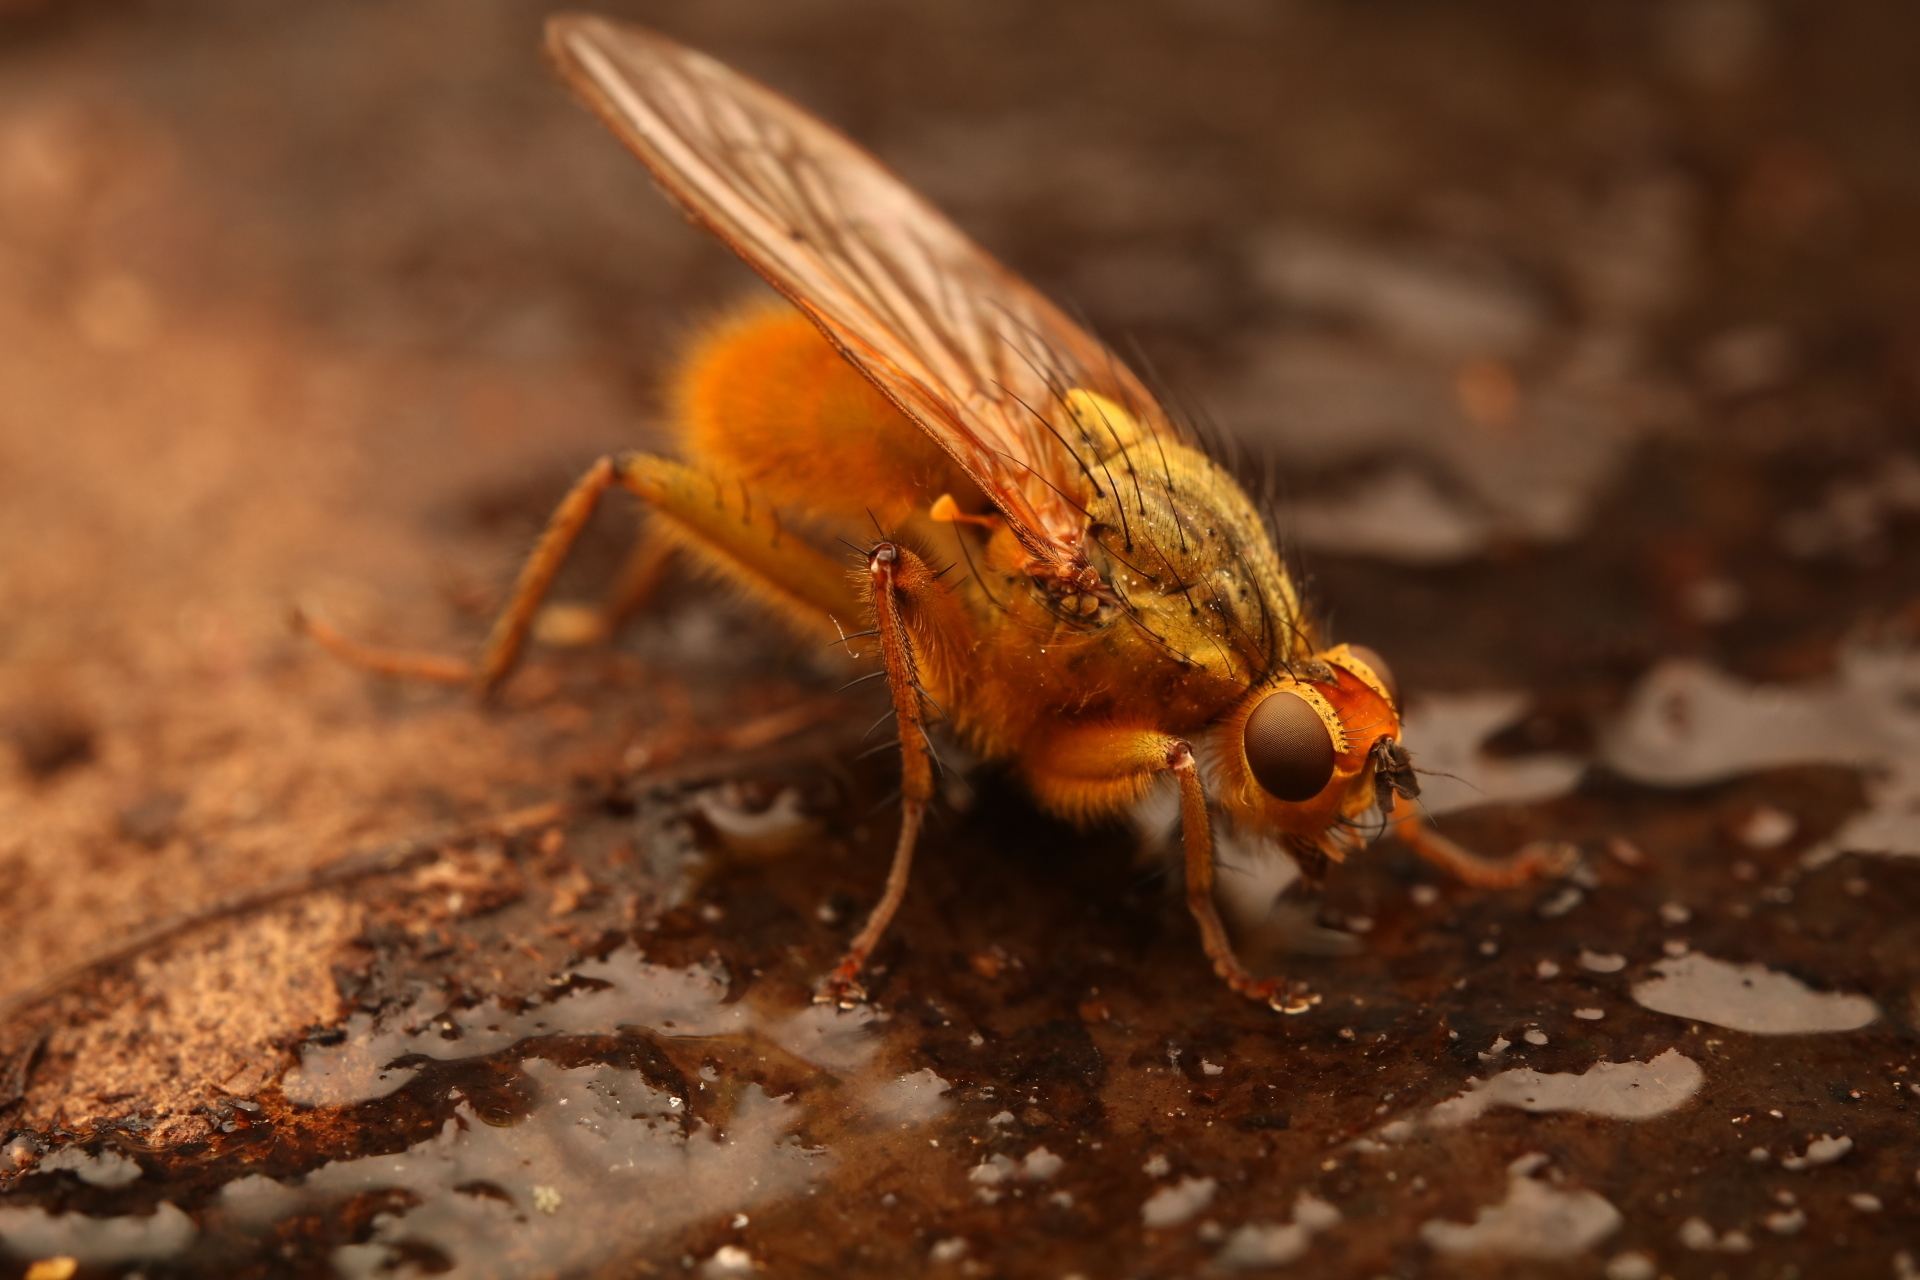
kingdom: Animalia
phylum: Arthropoda
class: Insecta
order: Diptera
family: Scathophagidae
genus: Scathophaga
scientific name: Scathophaga stercoraria
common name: Yellow dung fly
